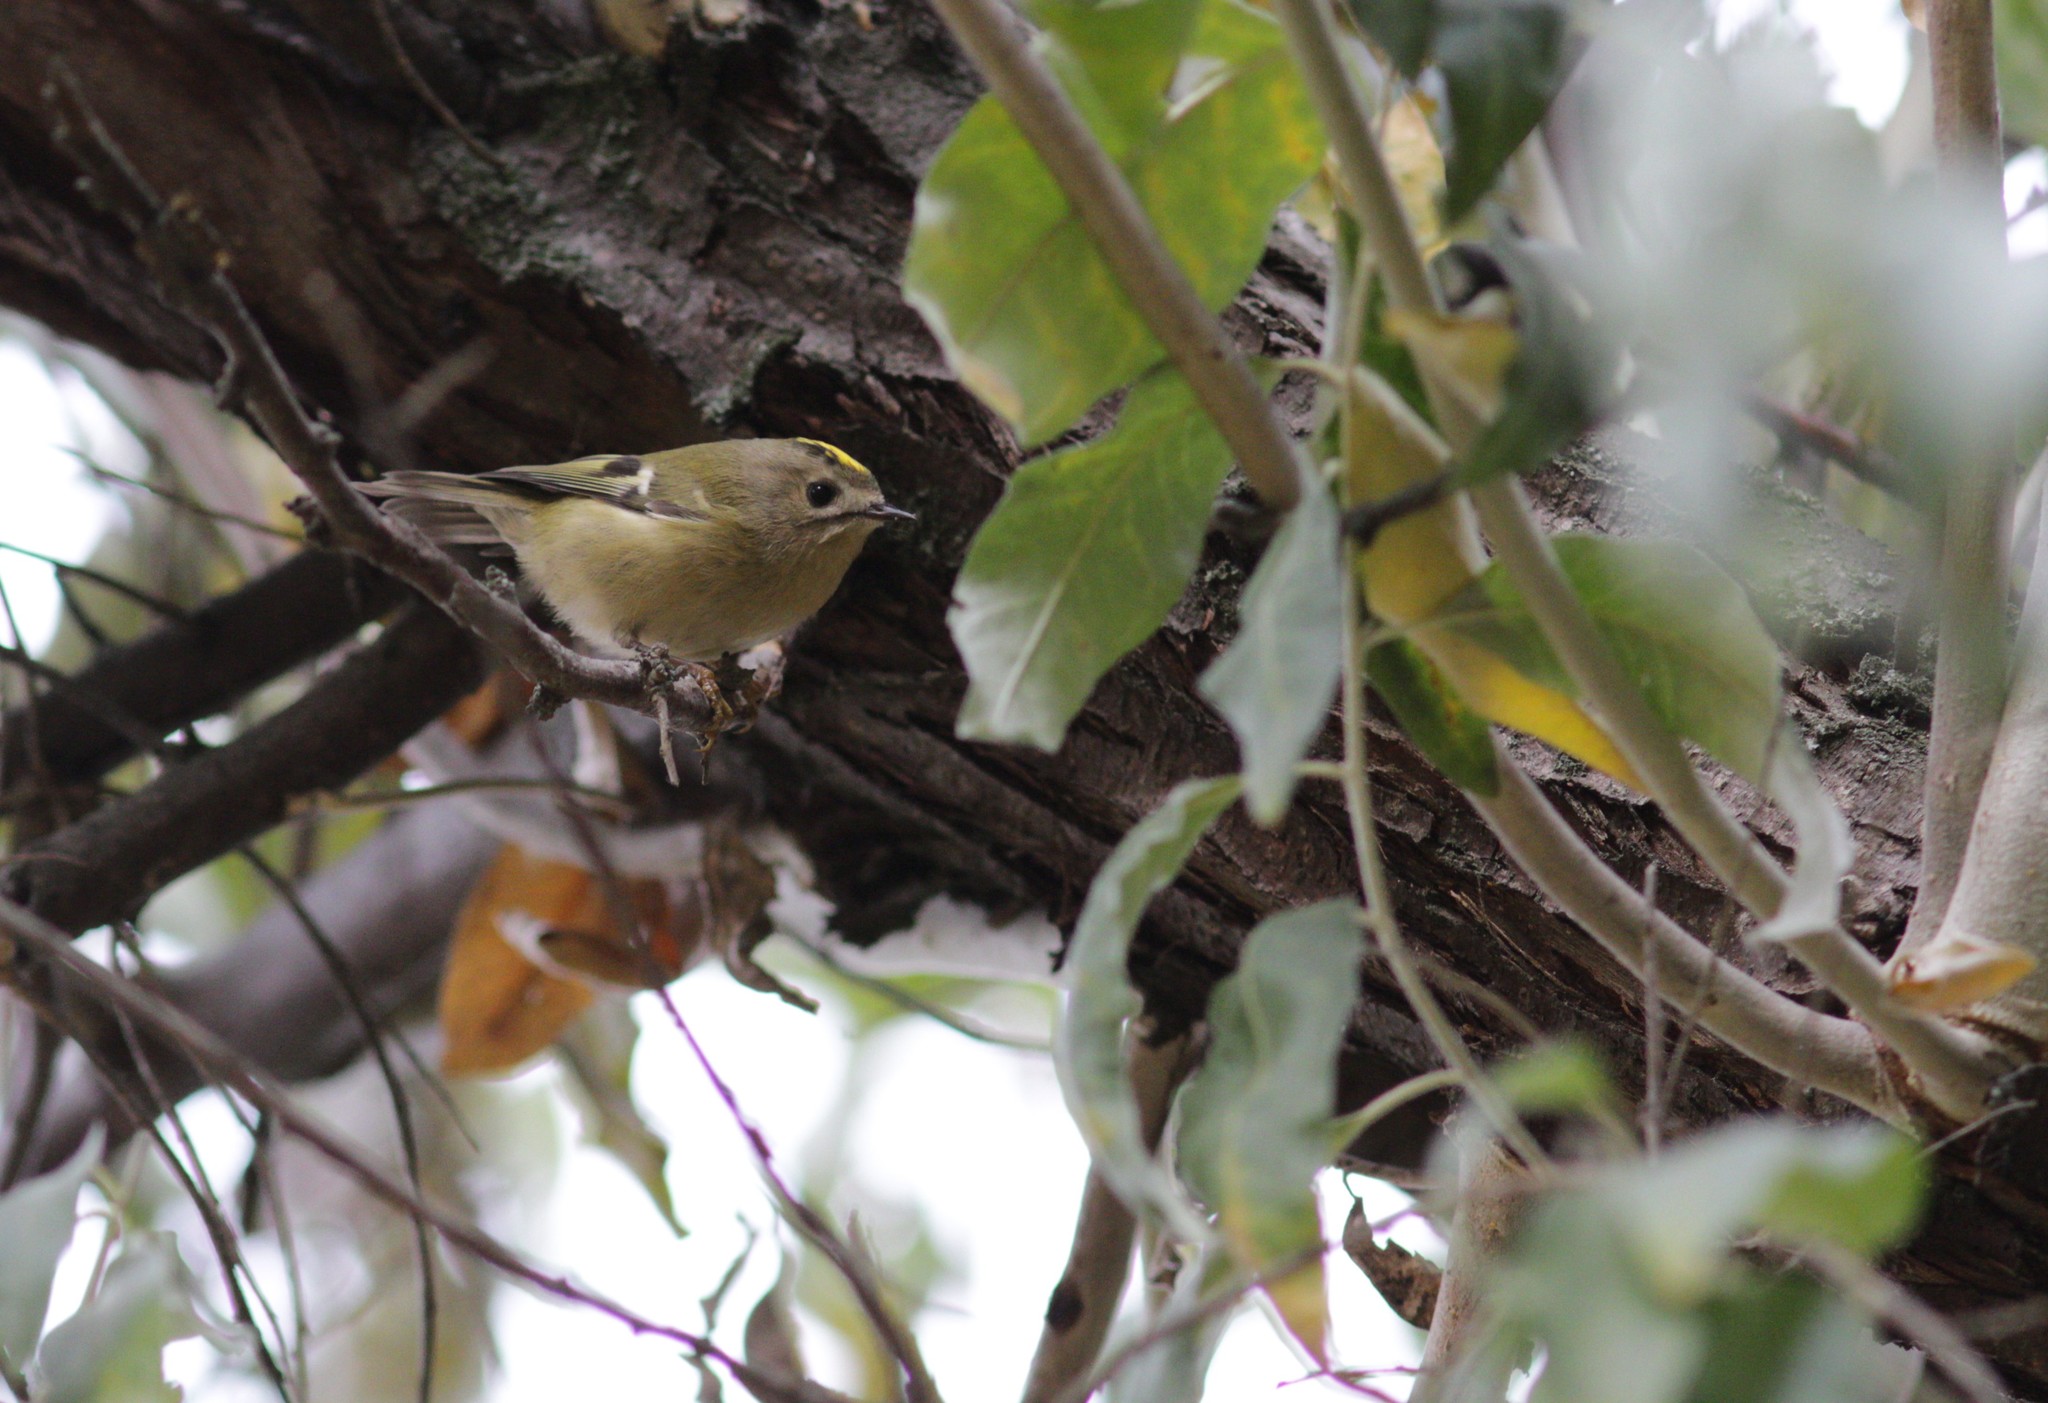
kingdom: Animalia
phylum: Chordata
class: Aves
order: Passeriformes
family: Regulidae
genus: Regulus
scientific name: Regulus regulus
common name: Goldcrest
